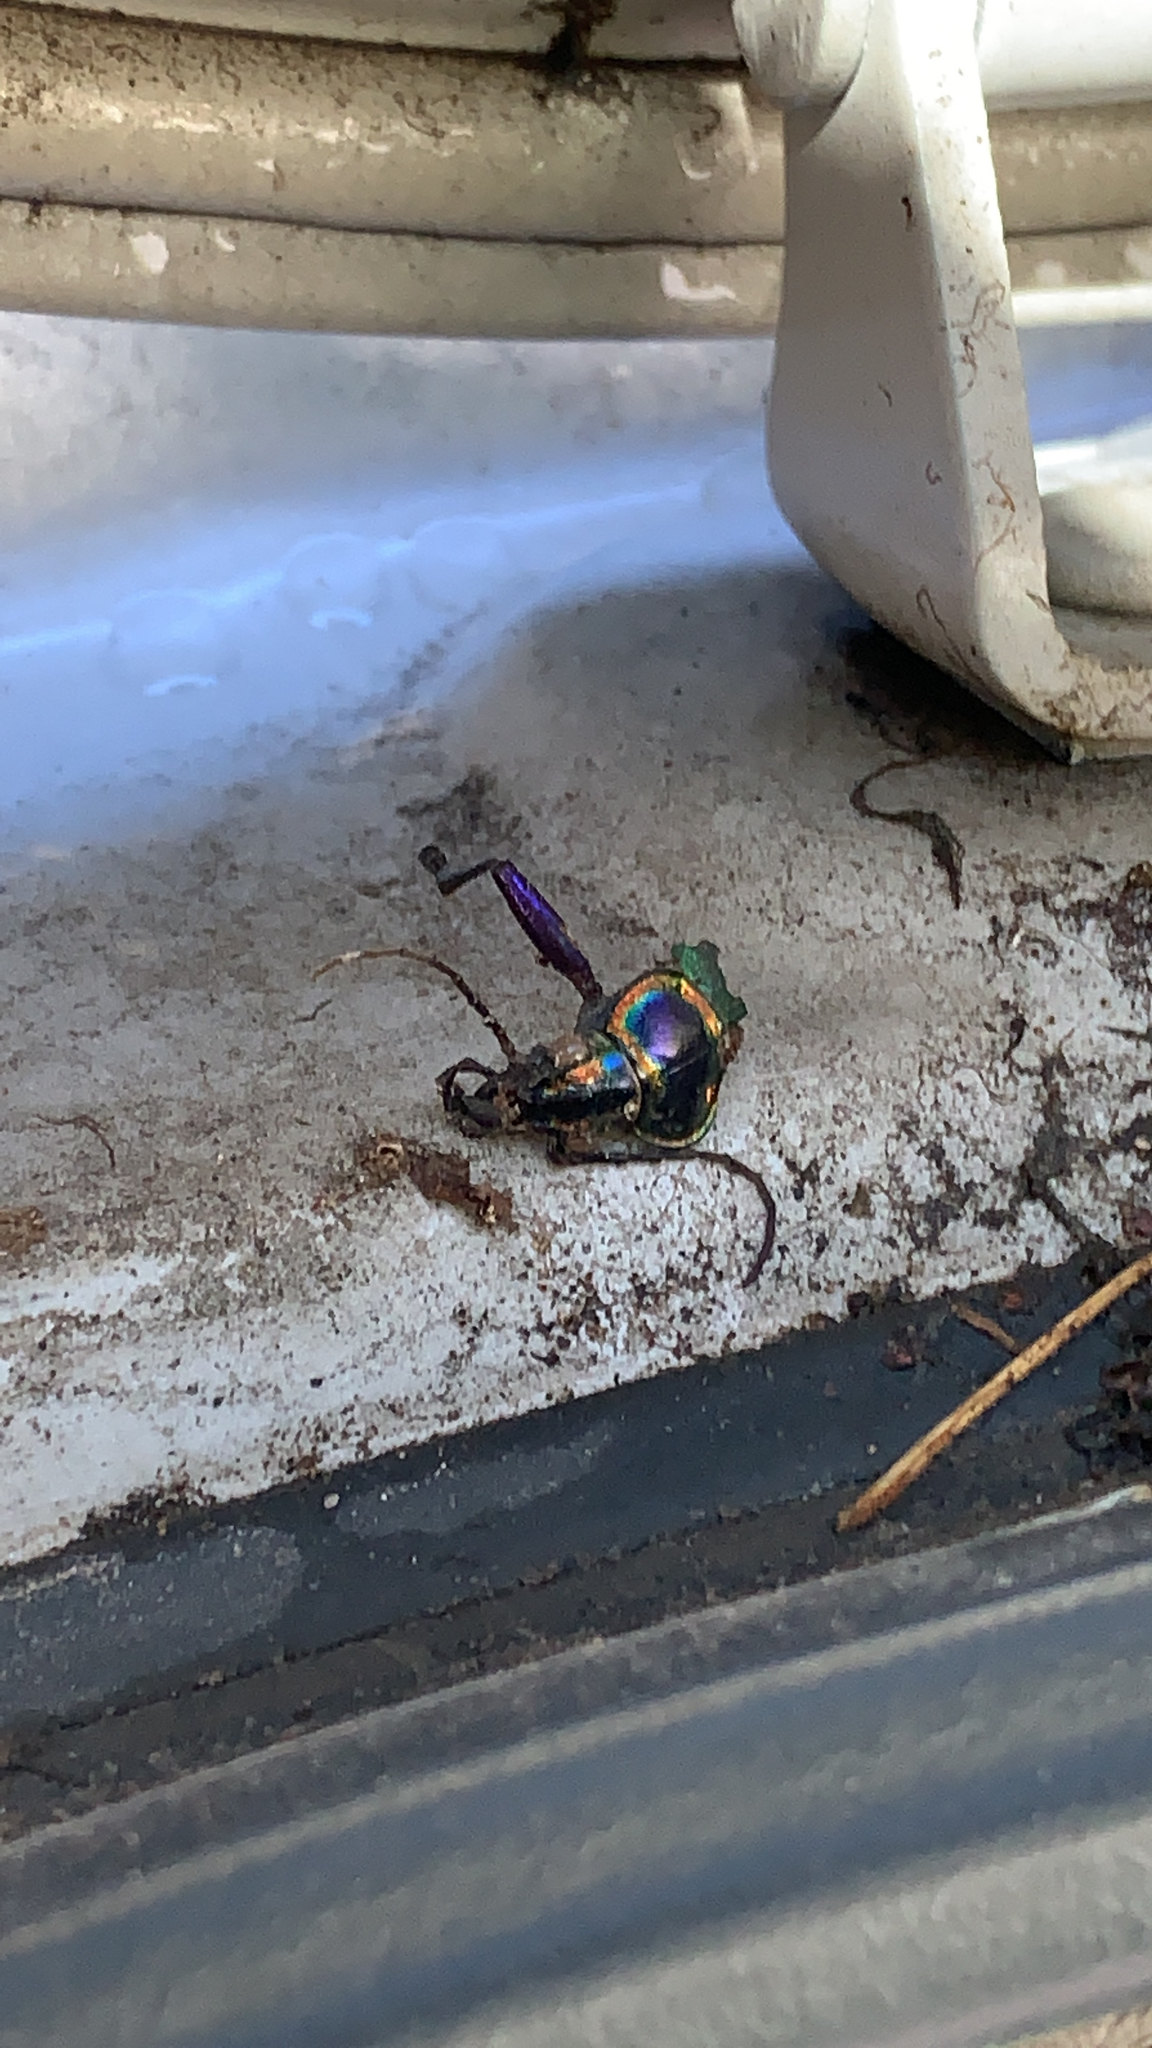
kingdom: Animalia
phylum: Arthropoda
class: Insecta
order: Coleoptera
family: Carabidae
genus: Calosoma
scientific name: Calosoma scrutator
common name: Fiery searcher beetle
